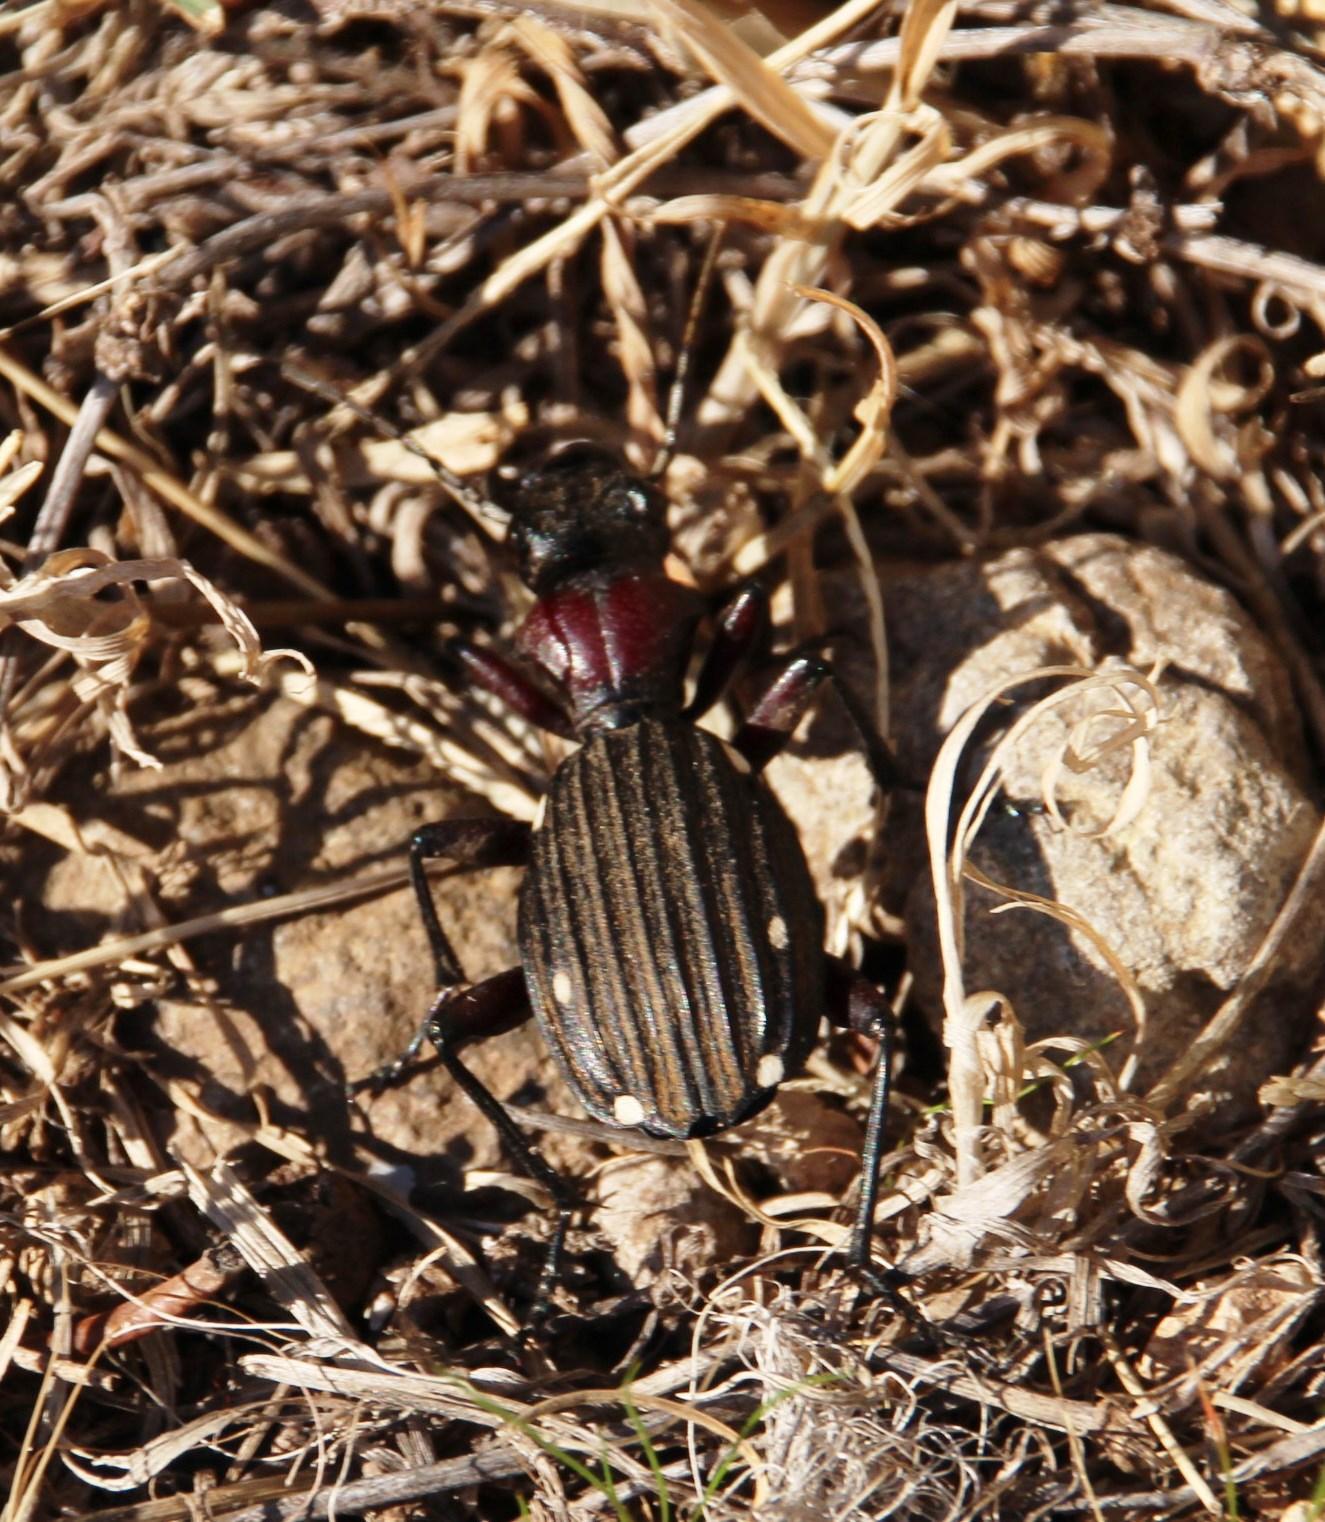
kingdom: Animalia
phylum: Arthropoda
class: Insecta
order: Coleoptera
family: Carabidae
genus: Anthia
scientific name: Anthia decemguttata
